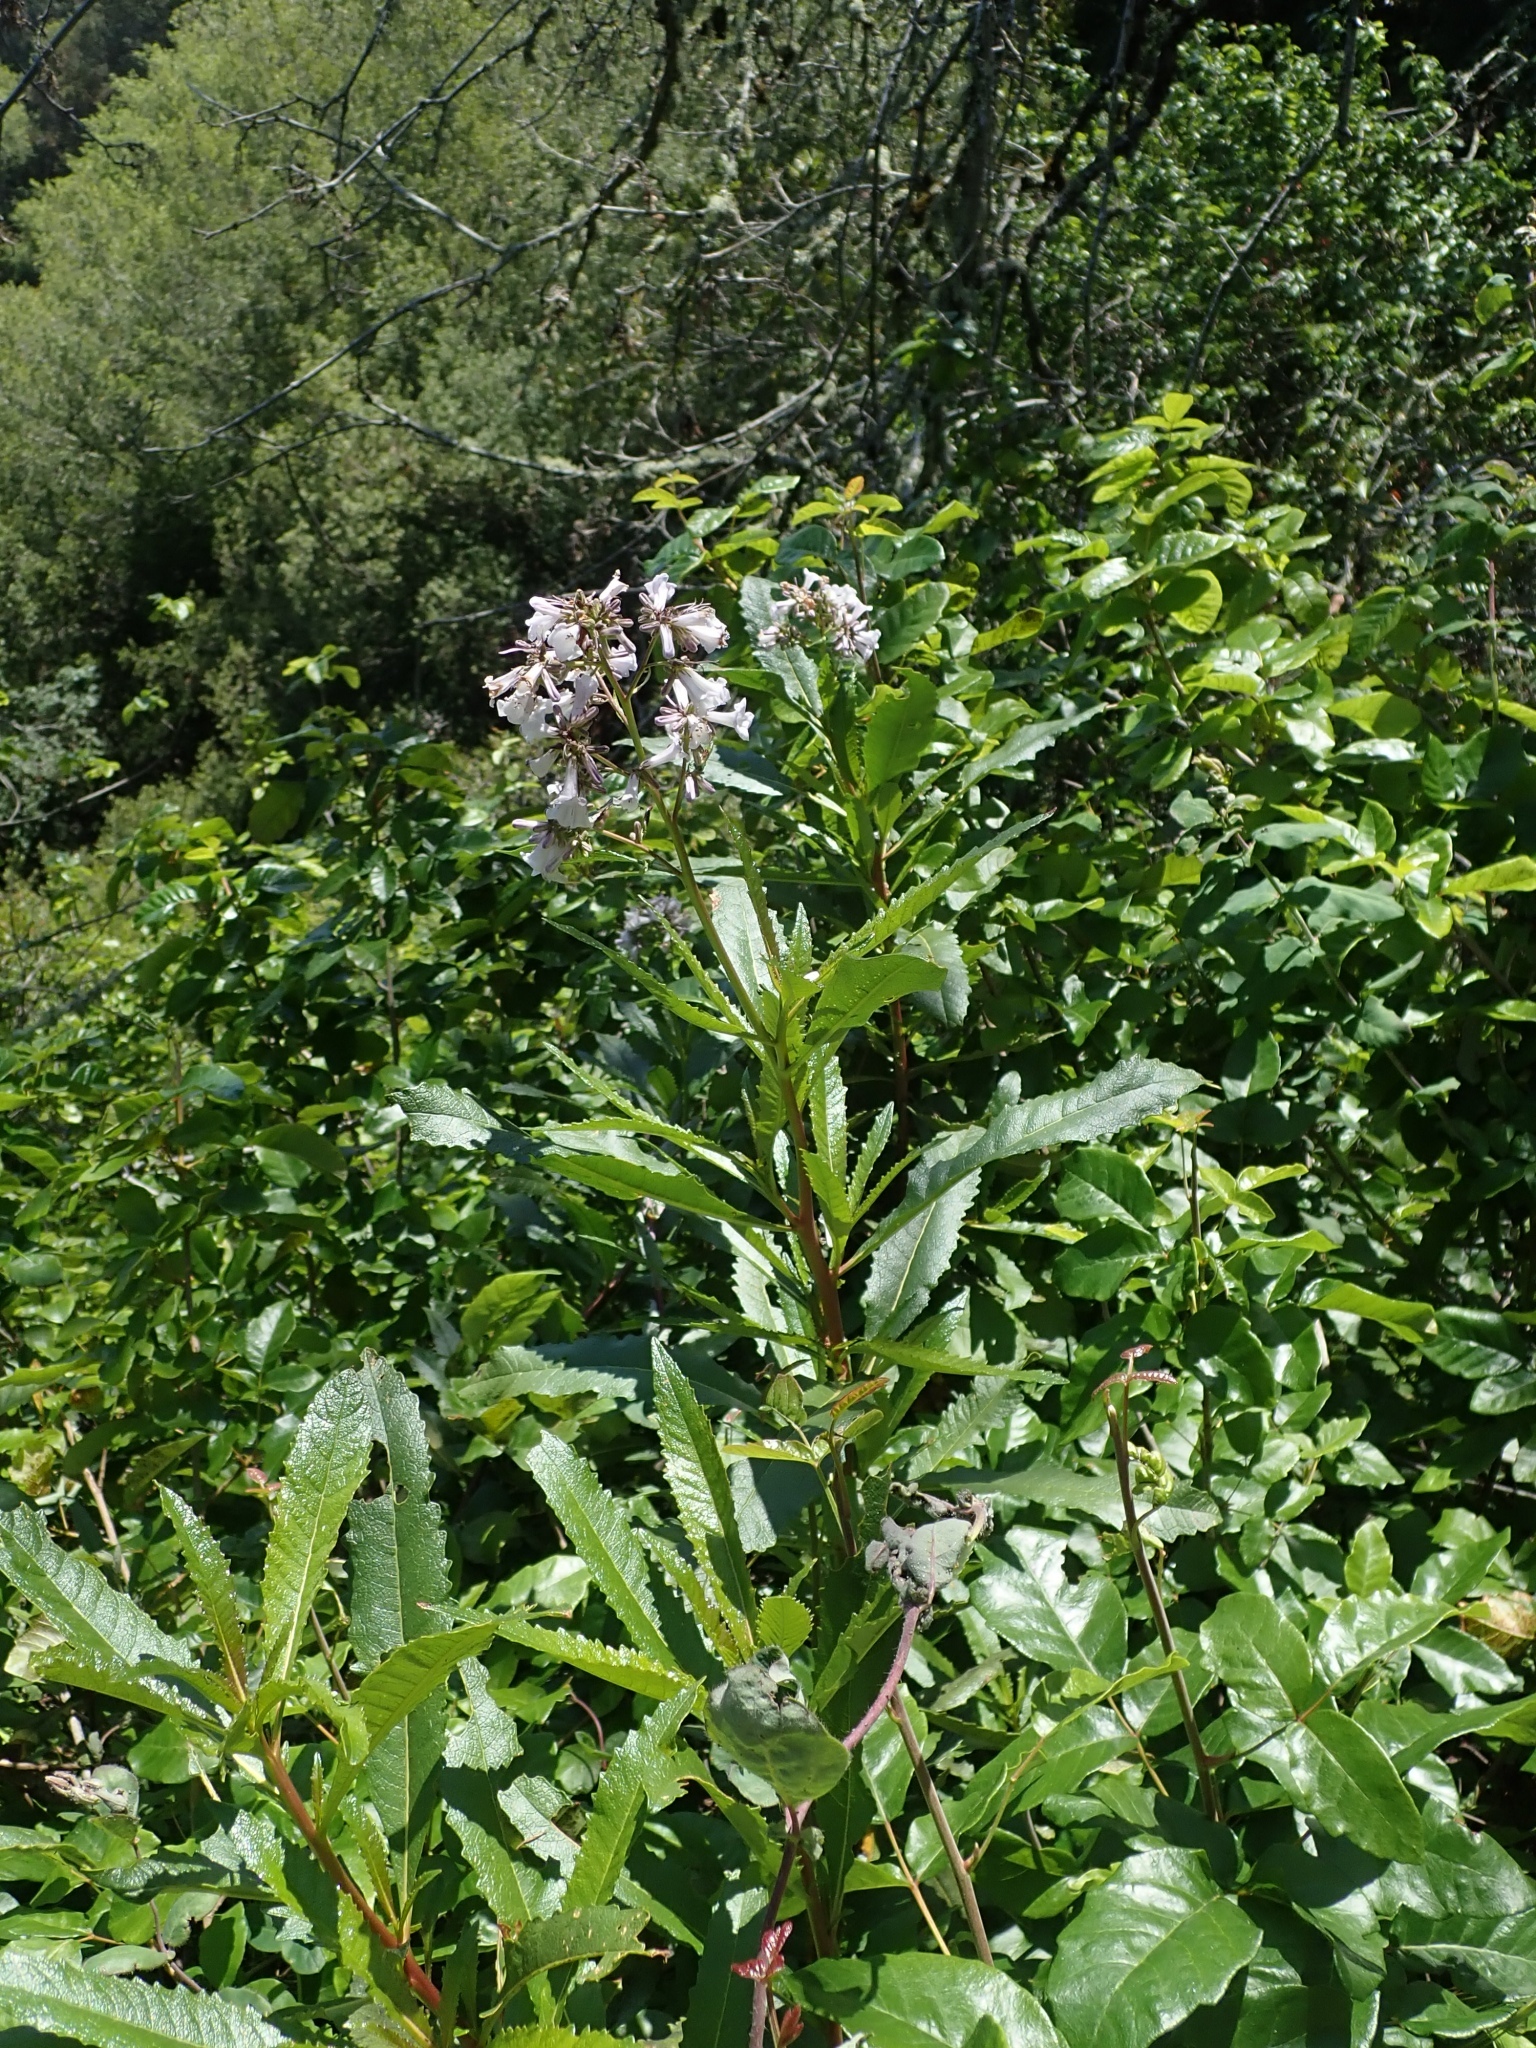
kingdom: Plantae
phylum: Tracheophyta
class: Magnoliopsida
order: Boraginales
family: Namaceae
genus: Eriodictyon
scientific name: Eriodictyon californicum
